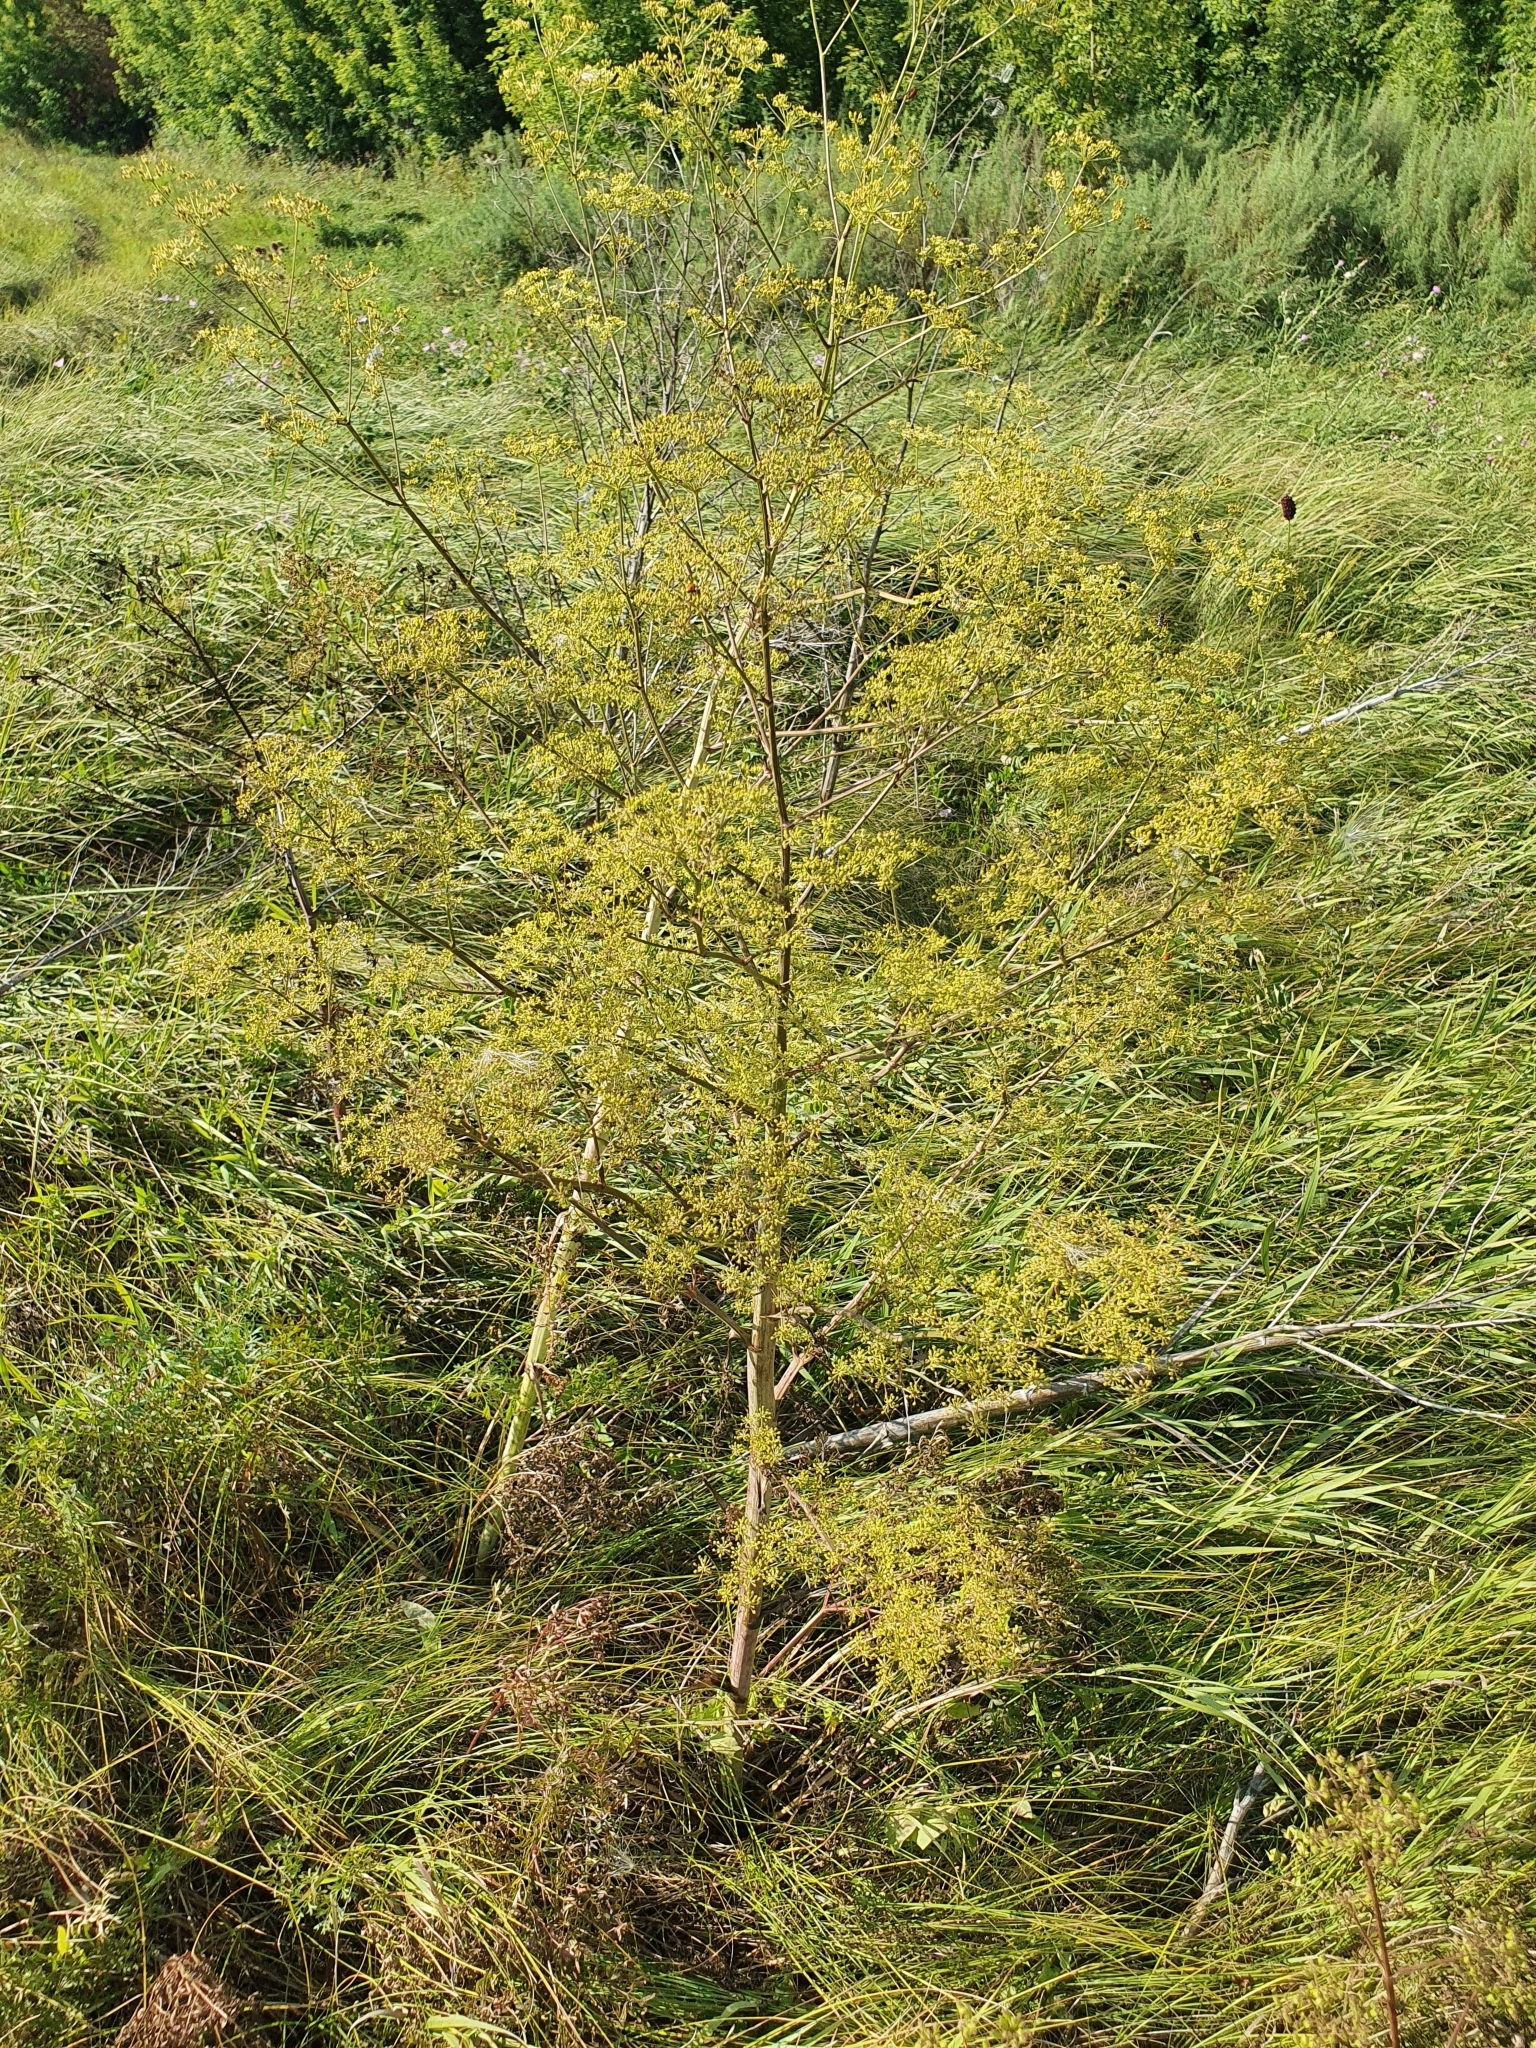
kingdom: Plantae
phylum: Tracheophyta
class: Magnoliopsida
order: Apiales
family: Apiaceae
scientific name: Apiaceae
